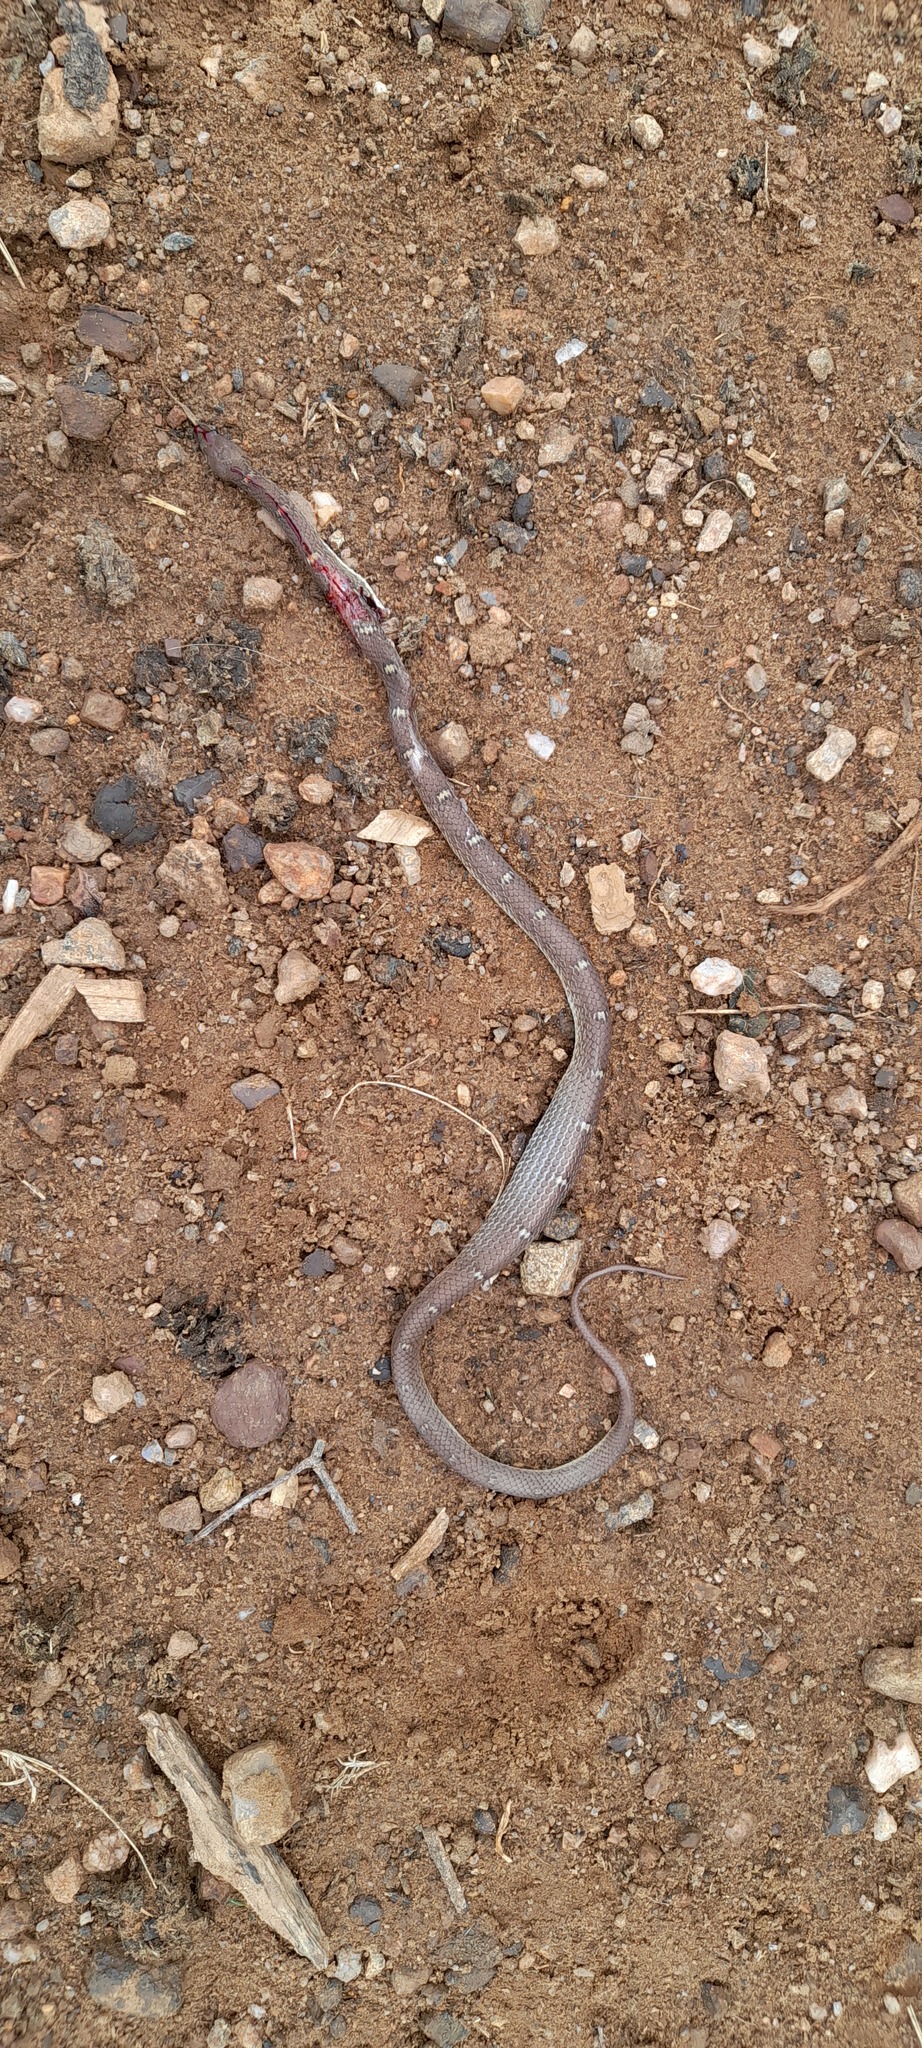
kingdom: Animalia
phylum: Chordata
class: Squamata
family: Colubridae
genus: Lycodon
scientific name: Lycodon fasciolatus
